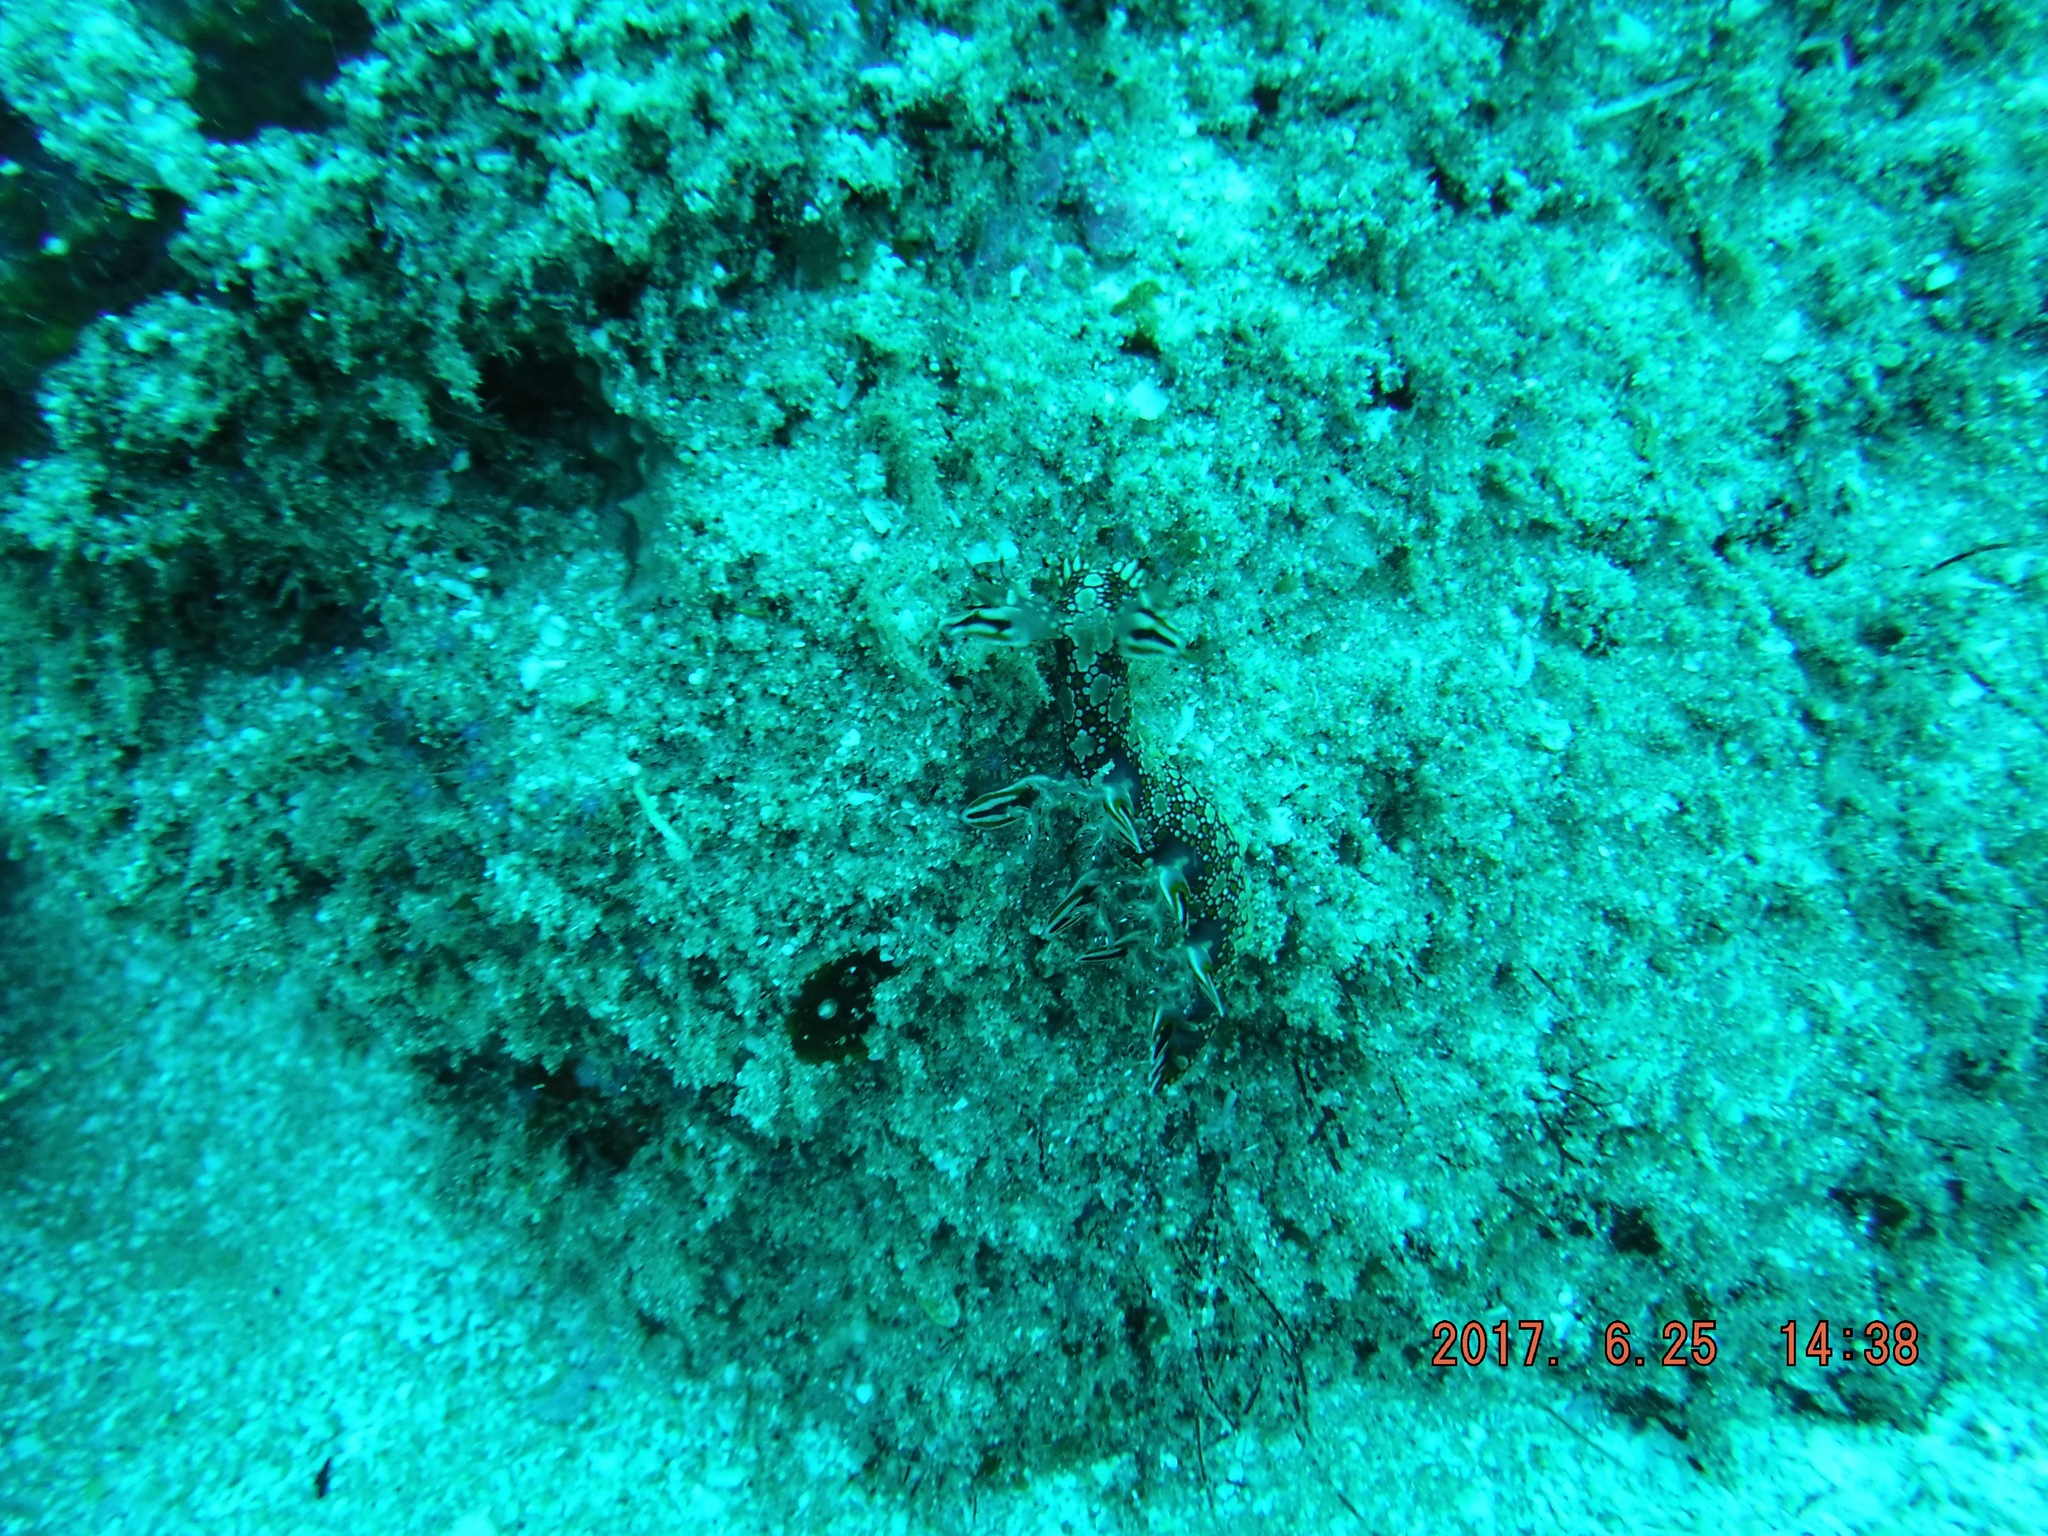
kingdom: Animalia
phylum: Mollusca
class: Gastropoda
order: Nudibranchia
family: Bornellidae
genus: Bornella
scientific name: Bornella anguilla
